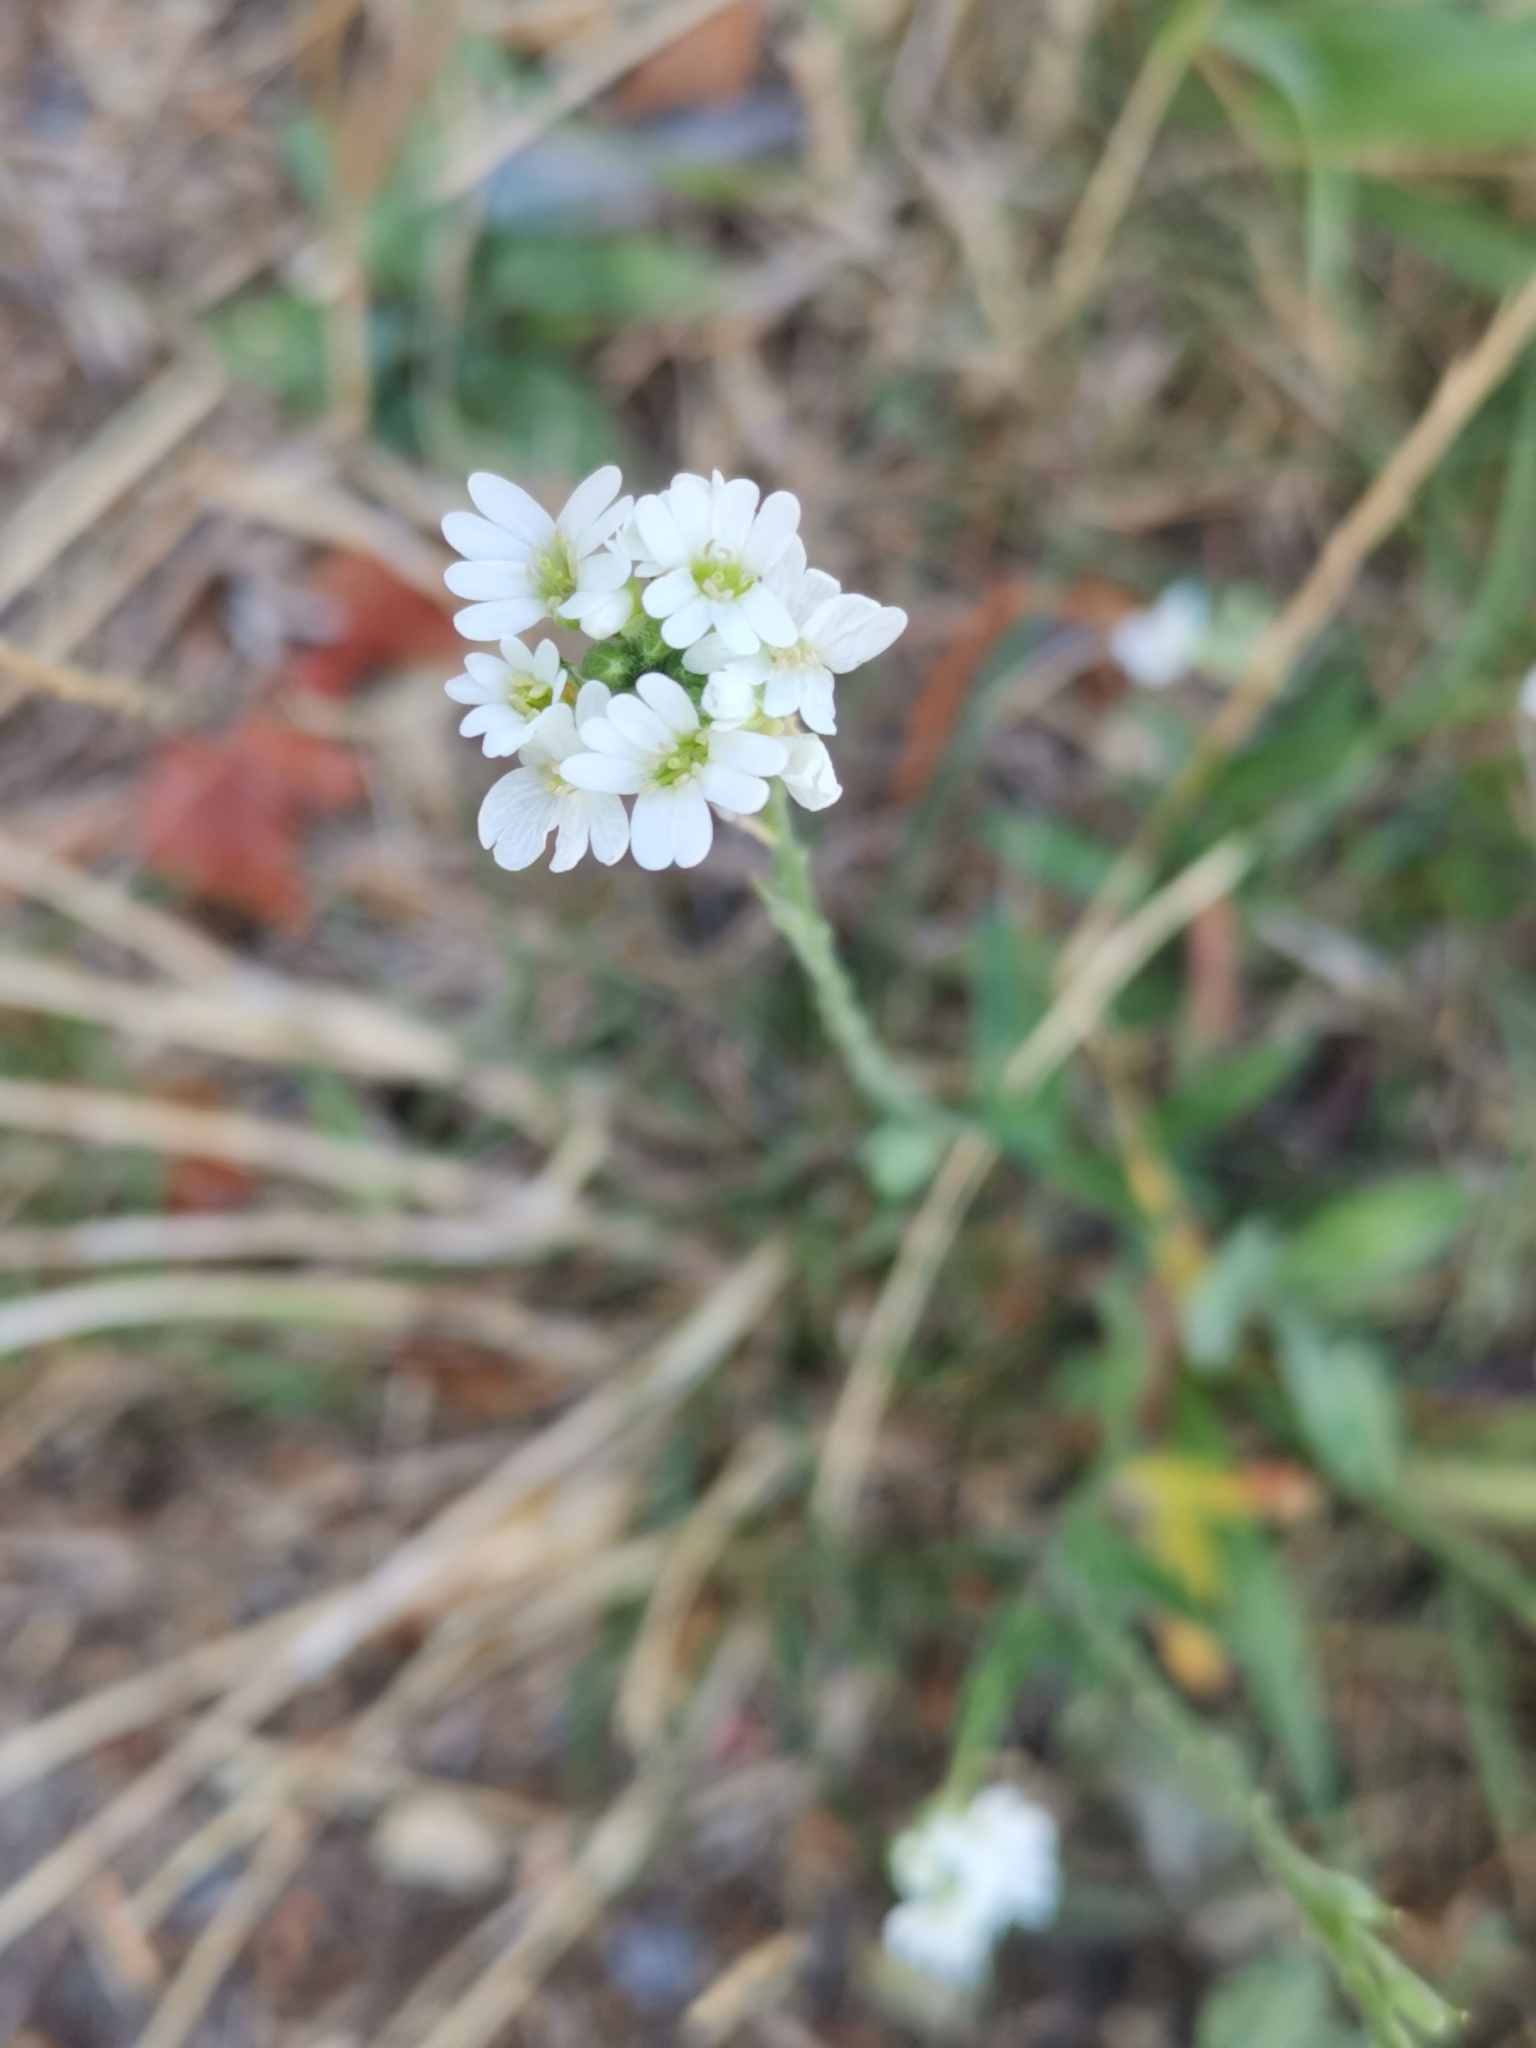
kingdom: Plantae
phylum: Tracheophyta
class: Magnoliopsida
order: Brassicales
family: Brassicaceae
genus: Berteroa
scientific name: Berteroa incana
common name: Hoary alison
